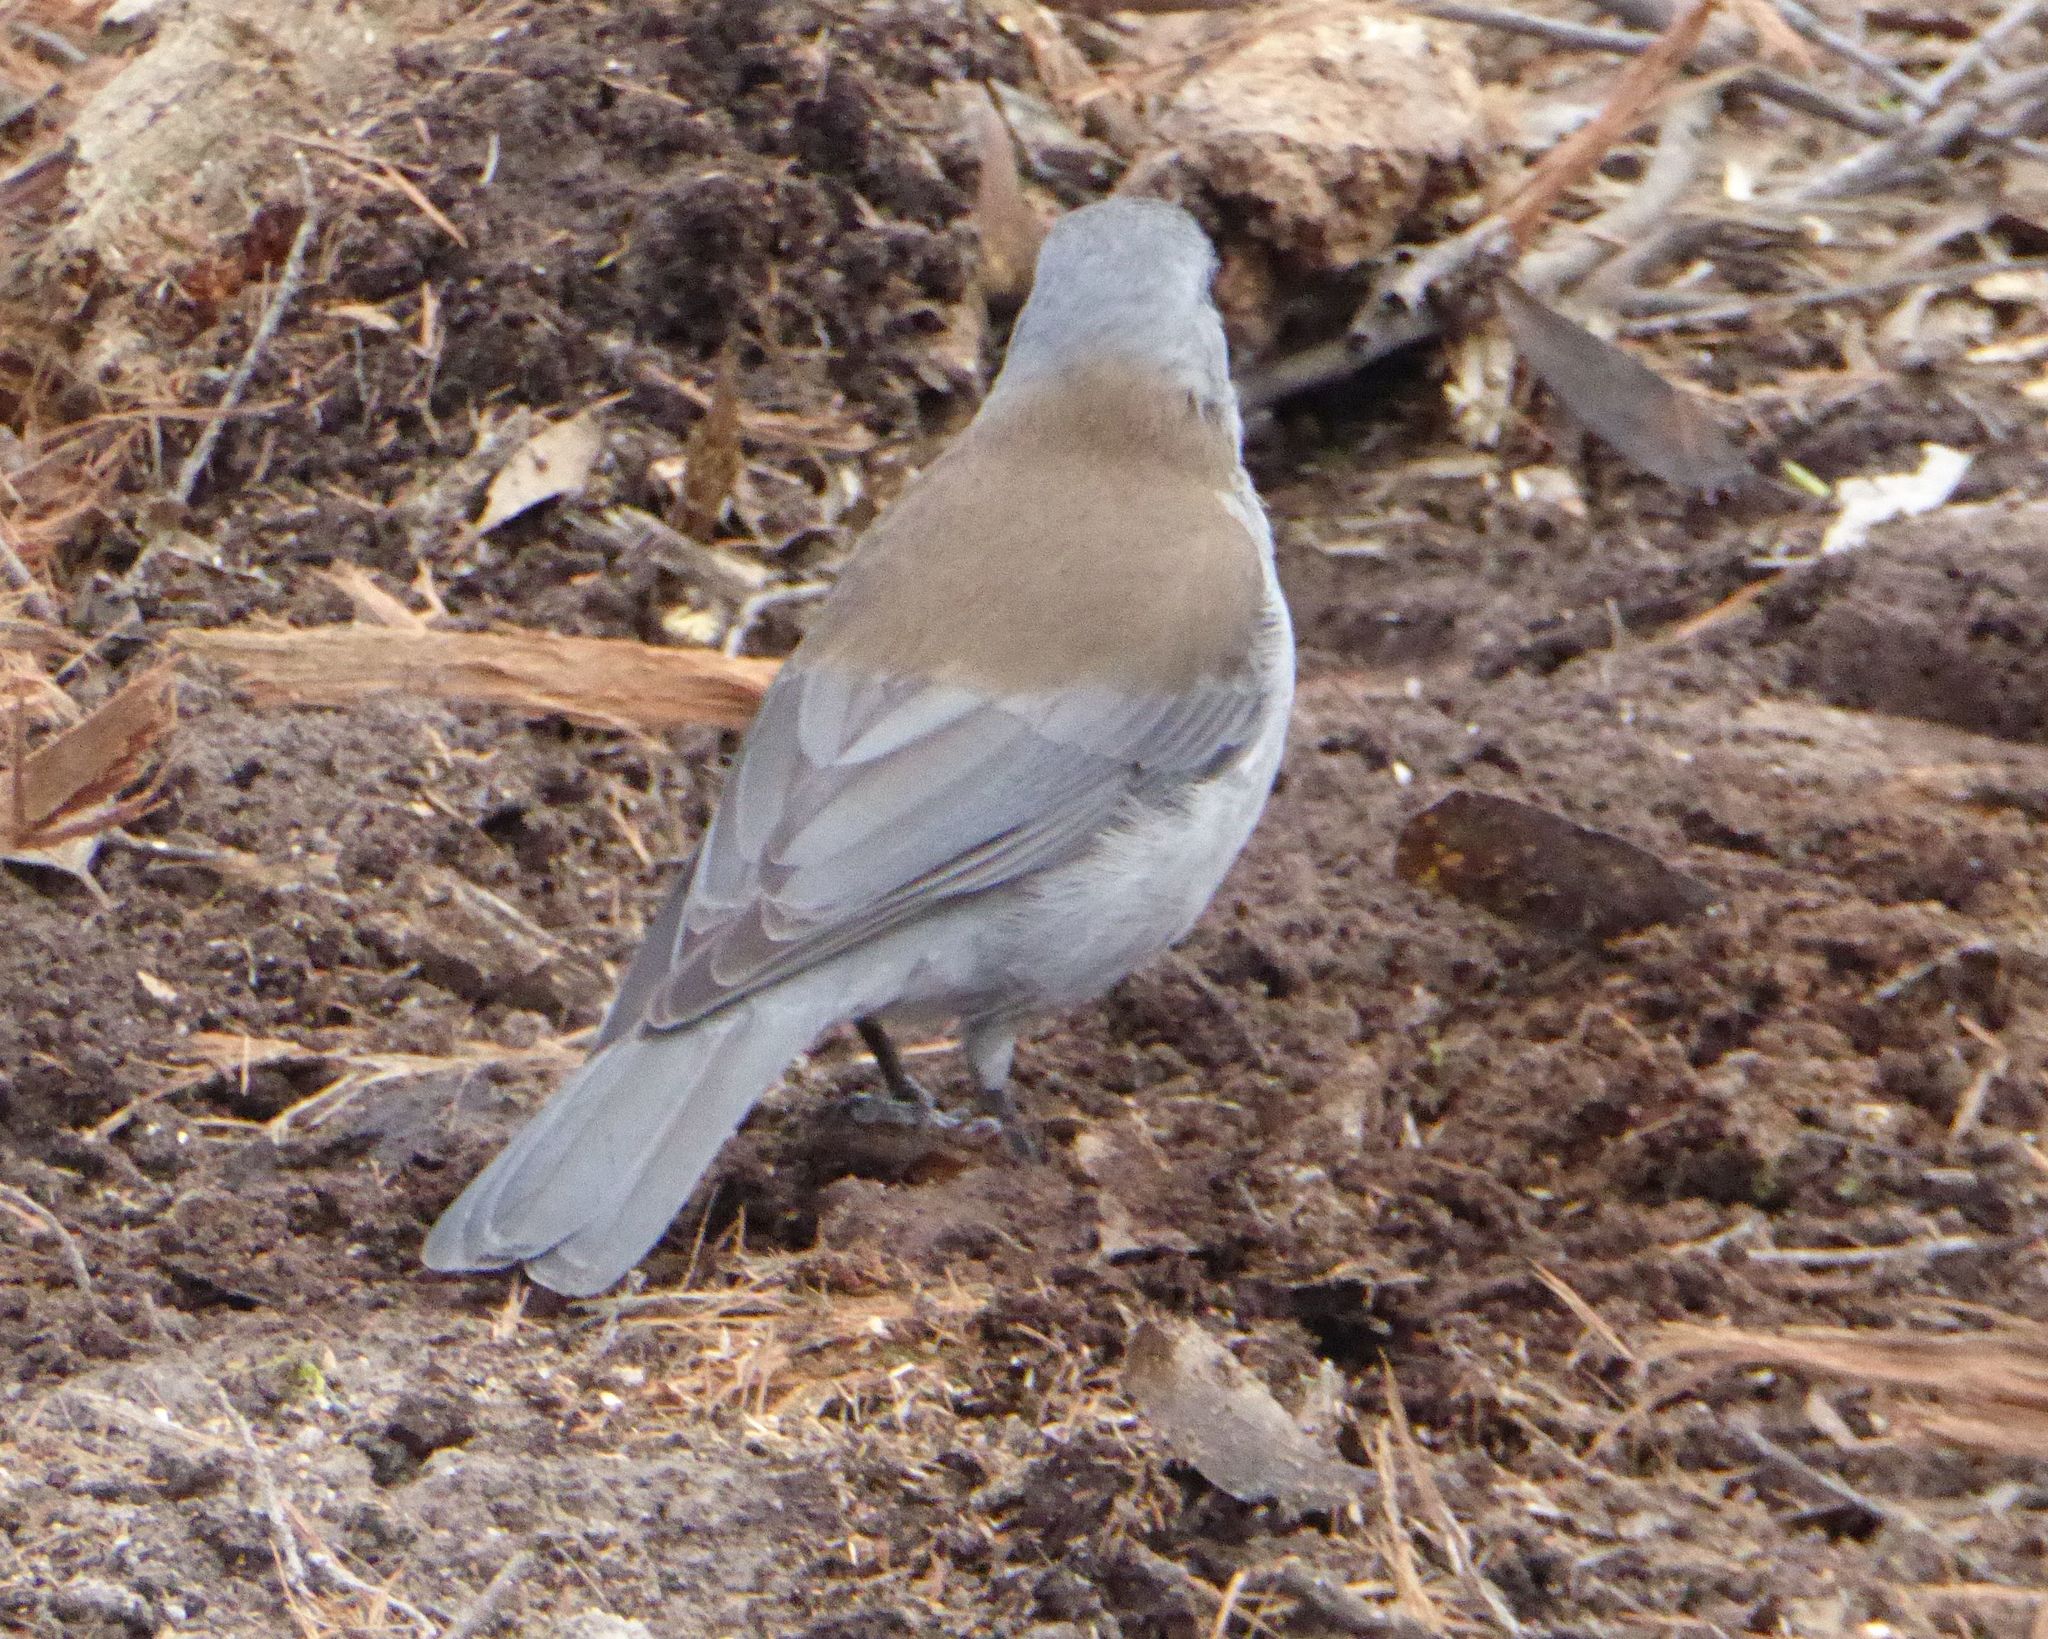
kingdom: Animalia
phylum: Chordata
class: Aves
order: Passeriformes
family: Pachycephalidae
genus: Colluricincla
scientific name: Colluricincla harmonica
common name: Grey shrikethrush
